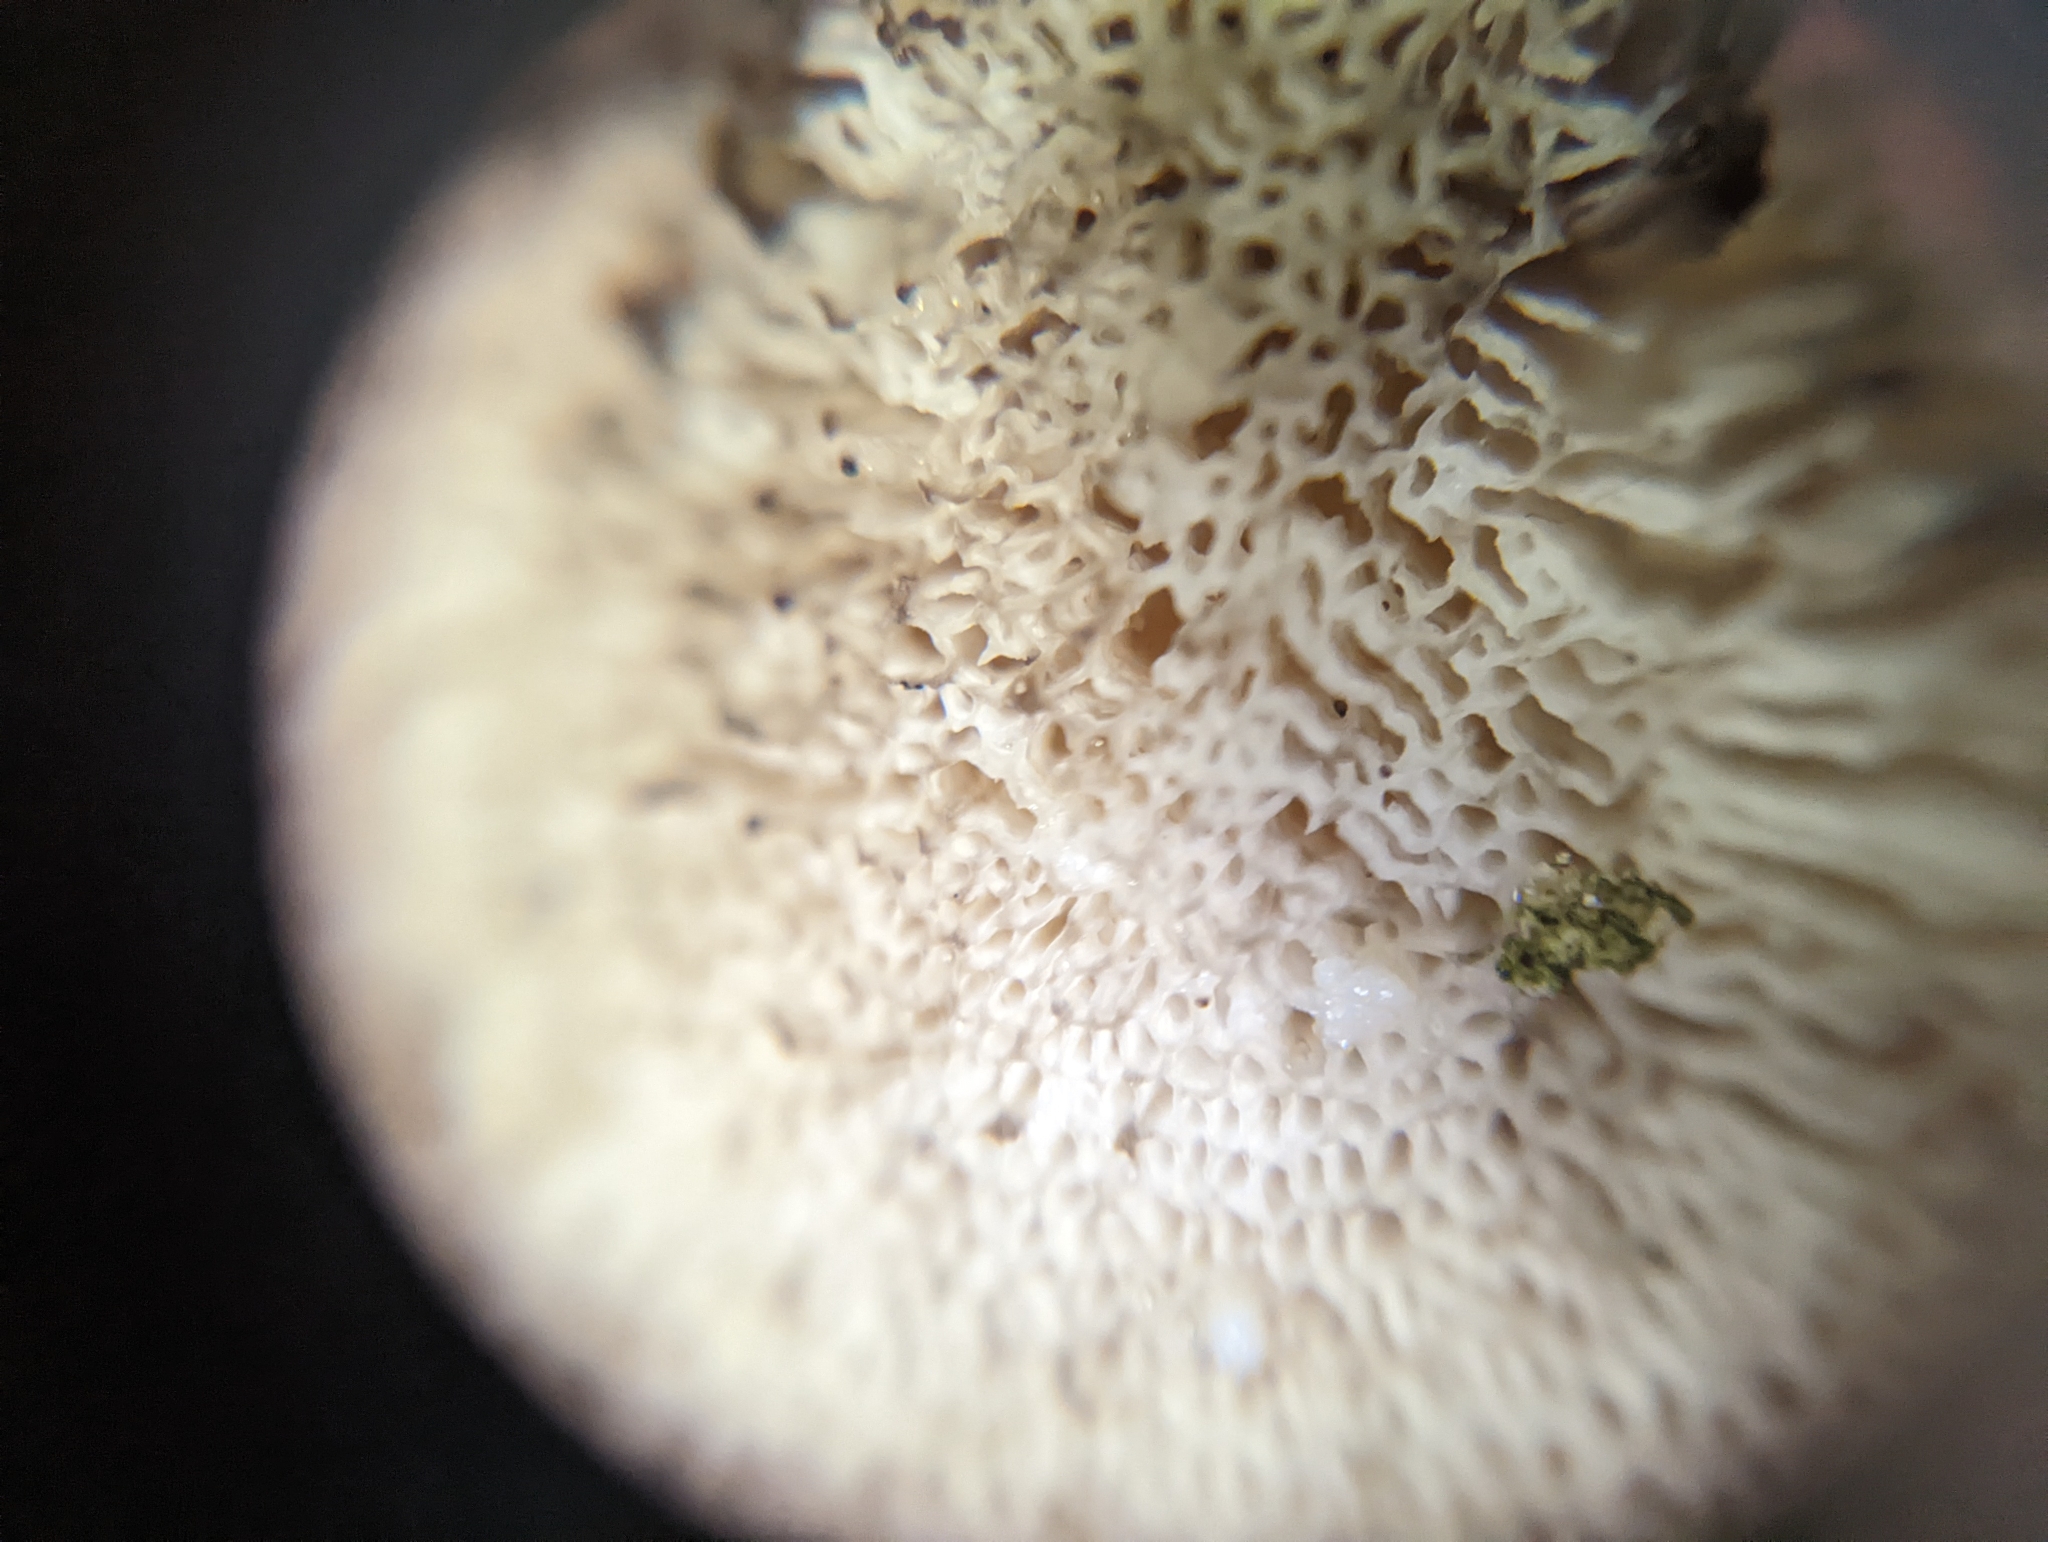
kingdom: Fungi
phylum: Basidiomycota
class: Agaricomycetes
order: Polyporales
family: Polyporaceae
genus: Bresadolia
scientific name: Bresadolia
